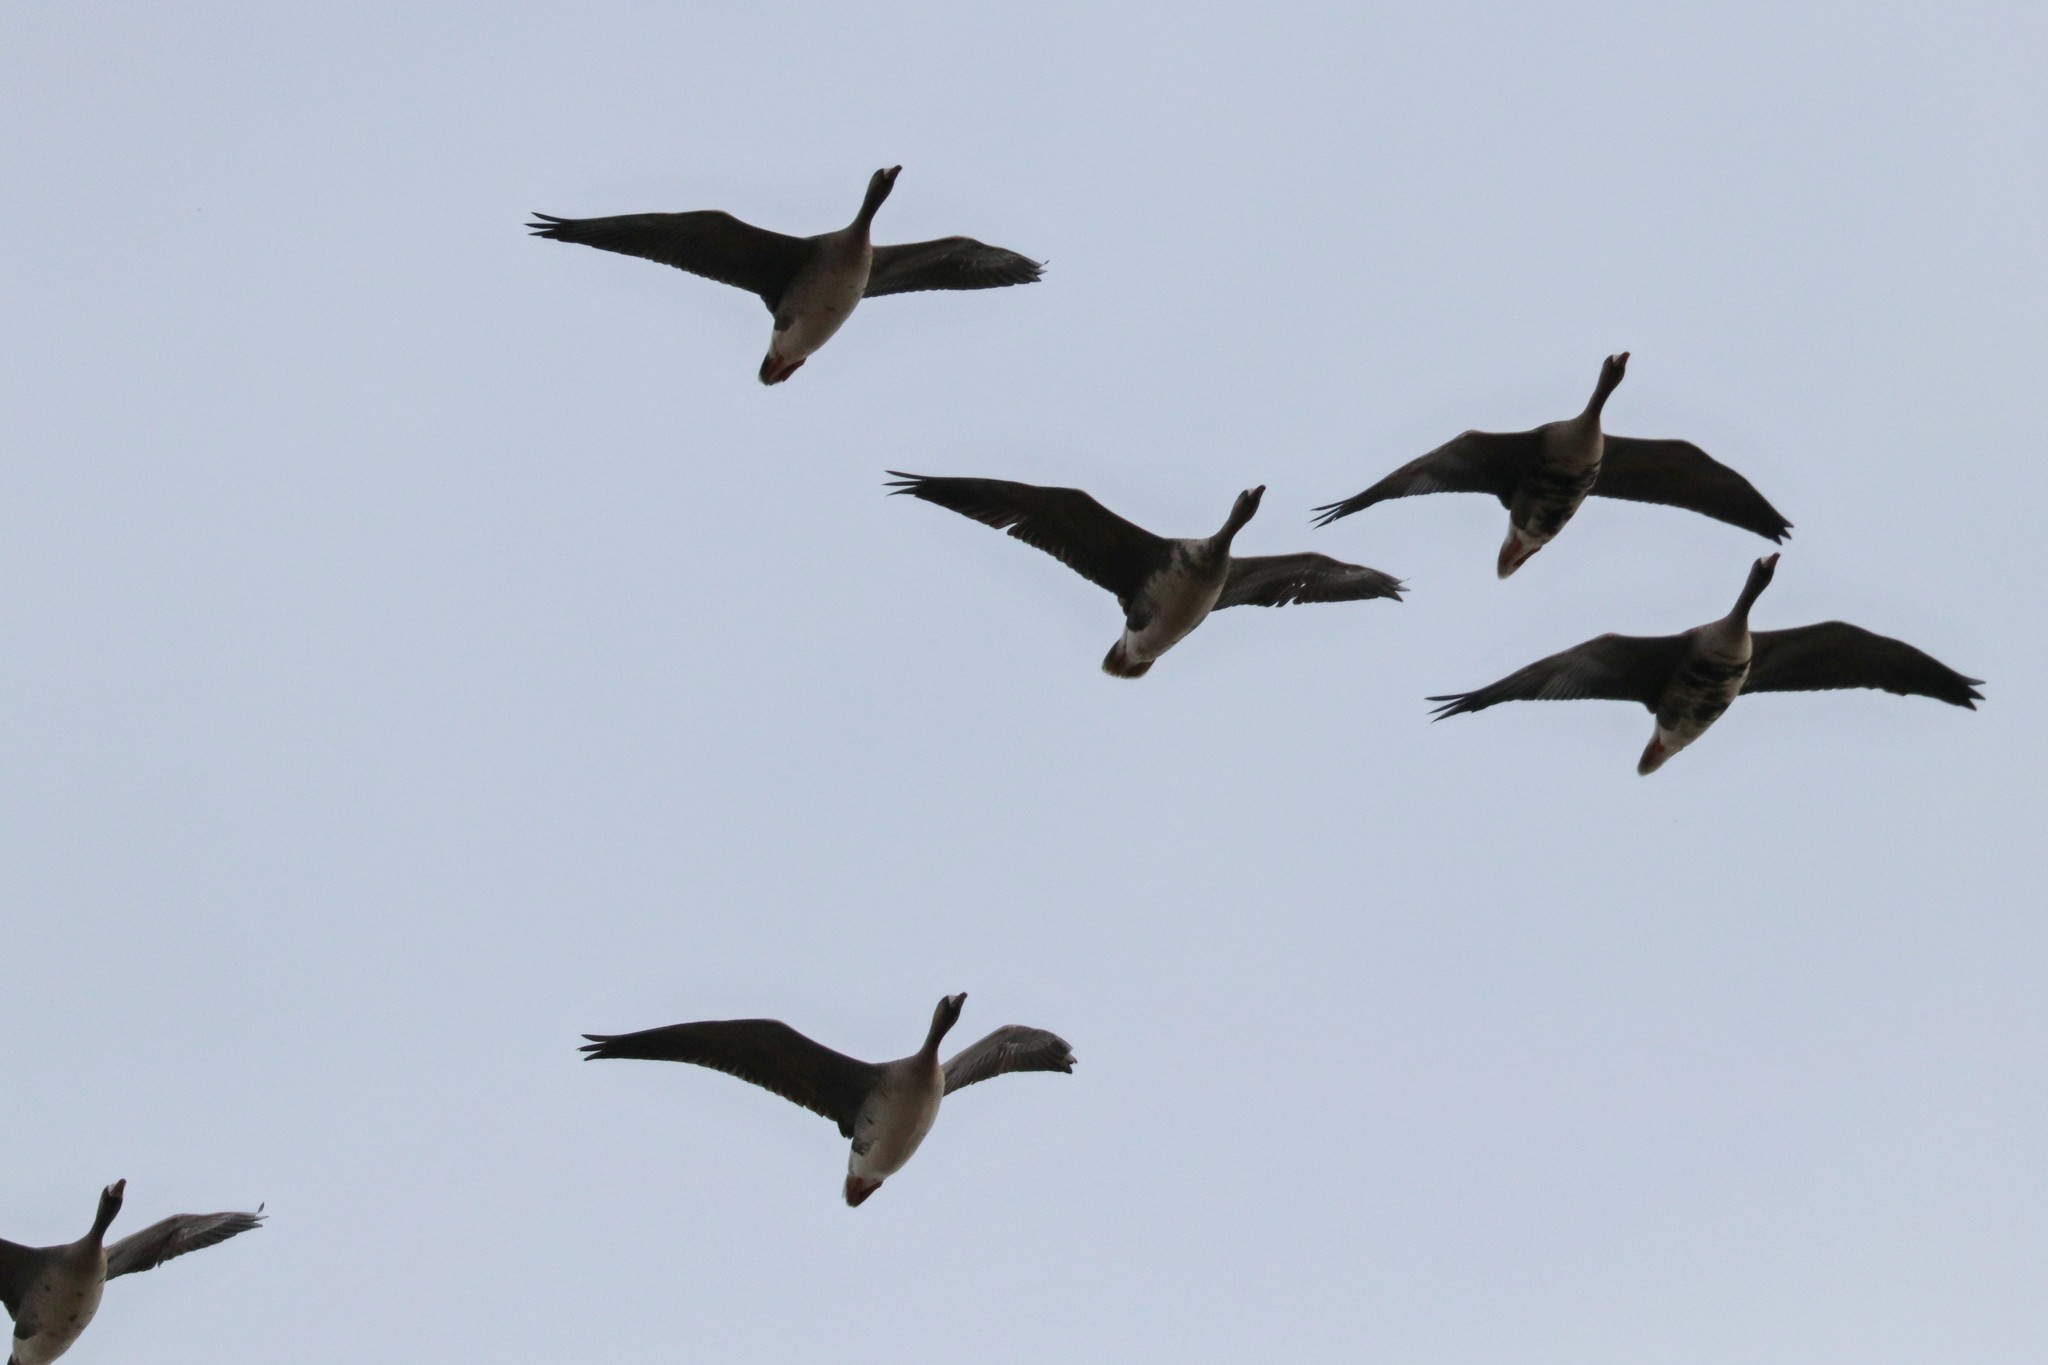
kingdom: Animalia
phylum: Chordata
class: Aves
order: Anseriformes
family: Anatidae
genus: Anser
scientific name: Anser albifrons
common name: Greater white-fronted goose
